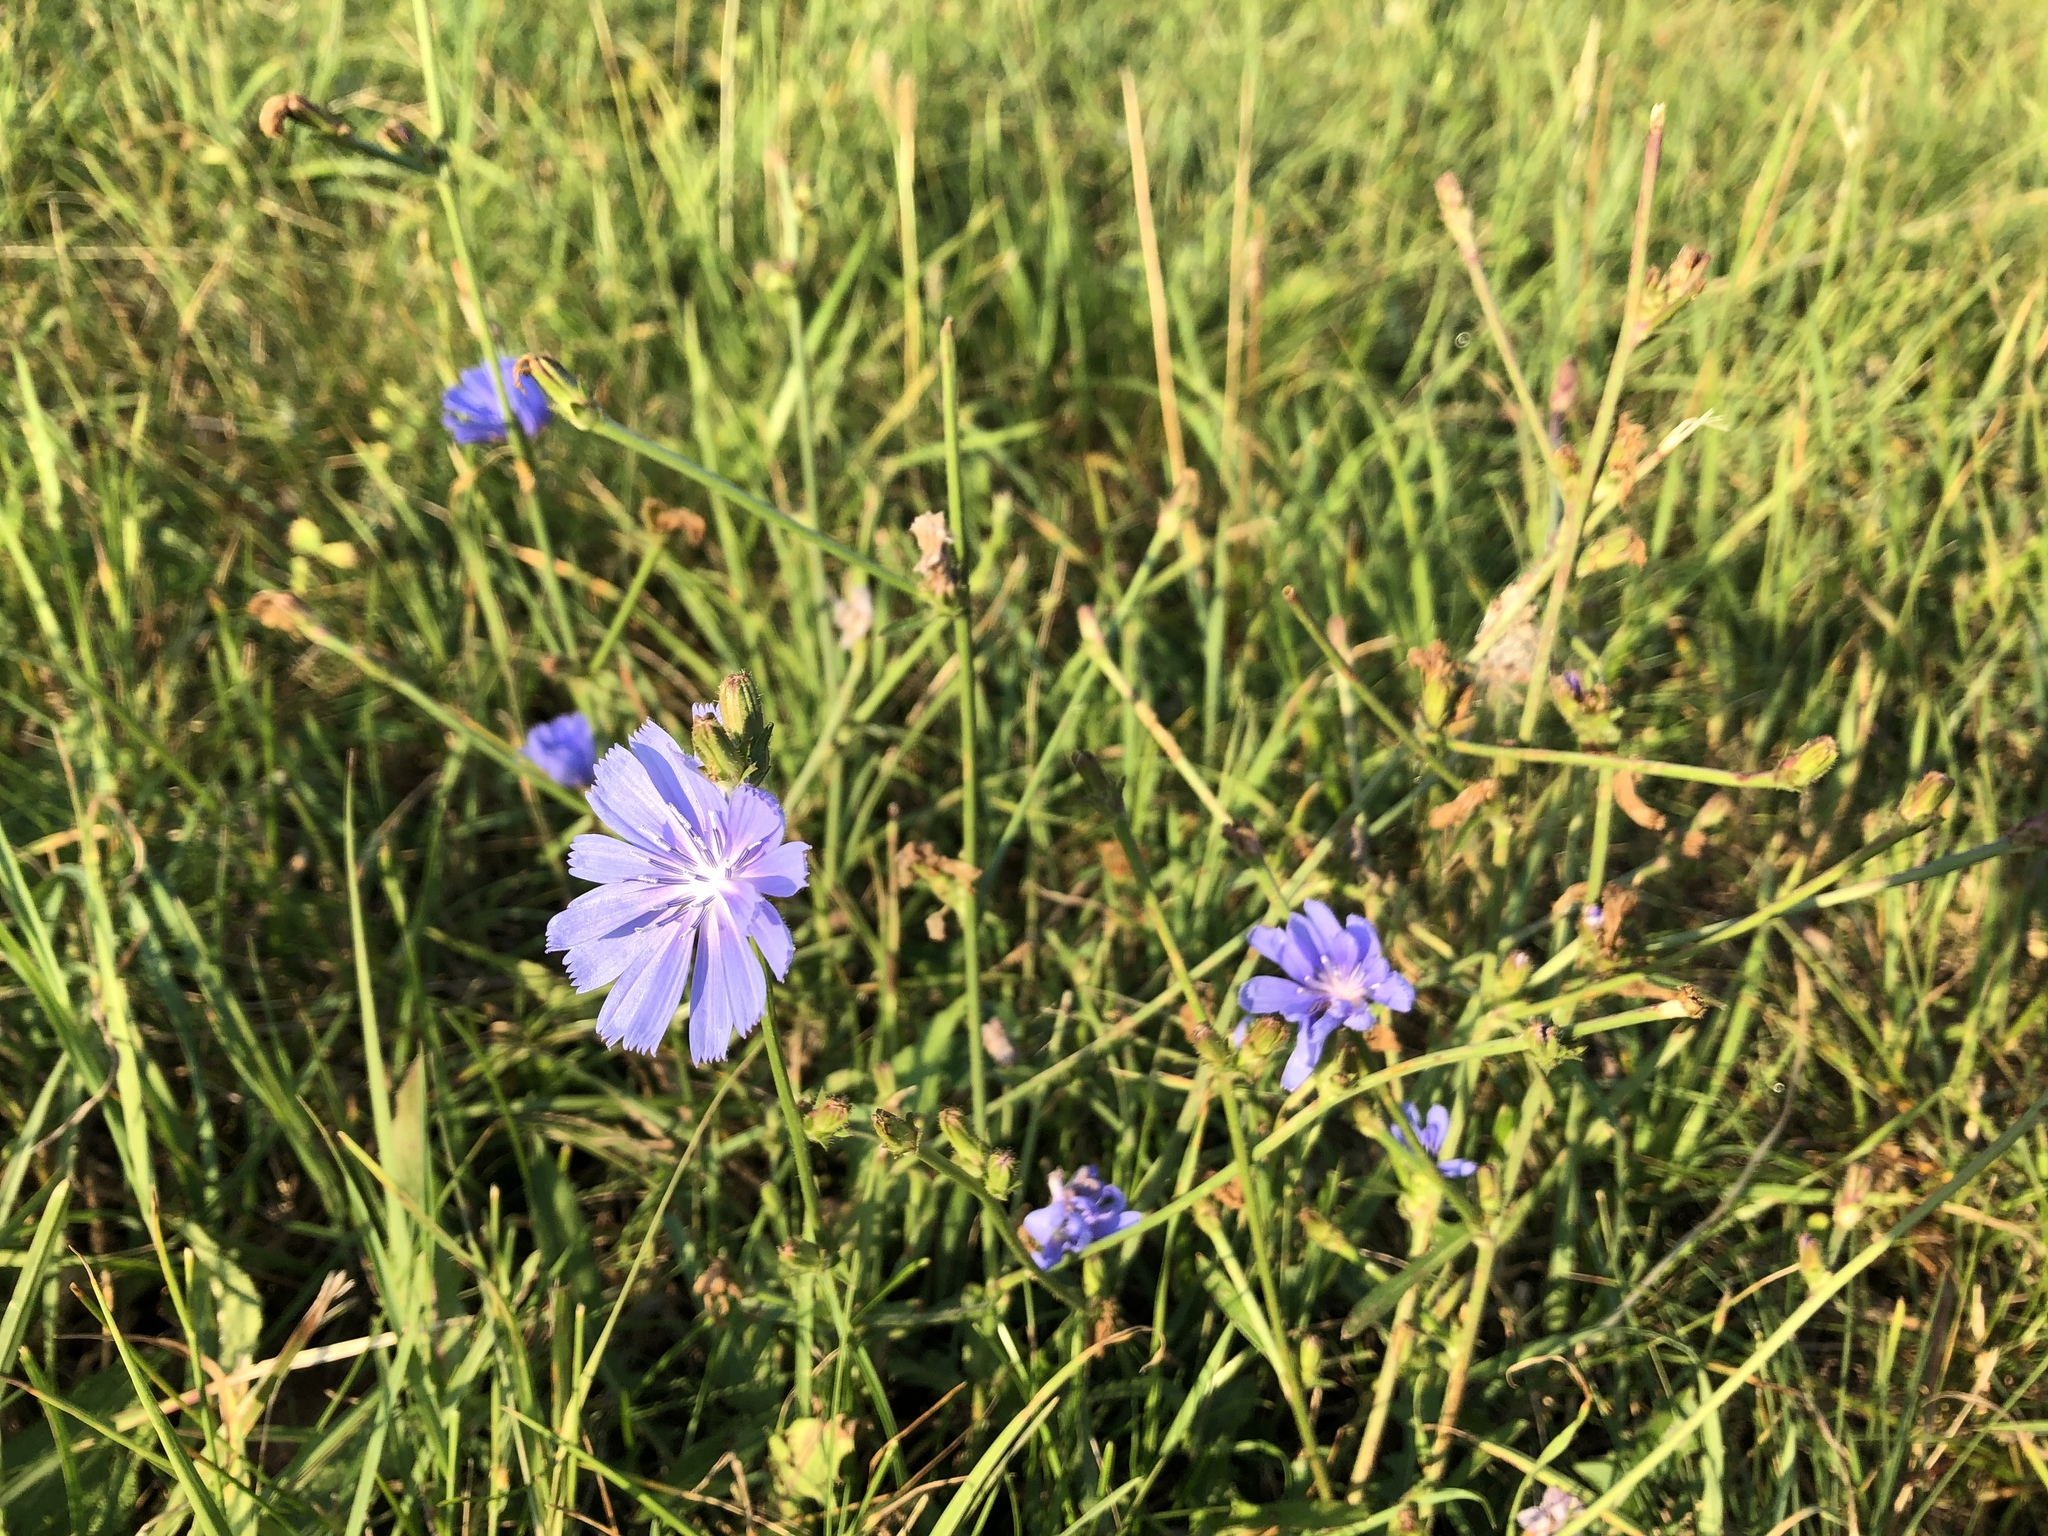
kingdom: Plantae
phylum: Tracheophyta
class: Magnoliopsida
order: Asterales
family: Asteraceae
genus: Cichorium
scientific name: Cichorium intybus
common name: Chicory
